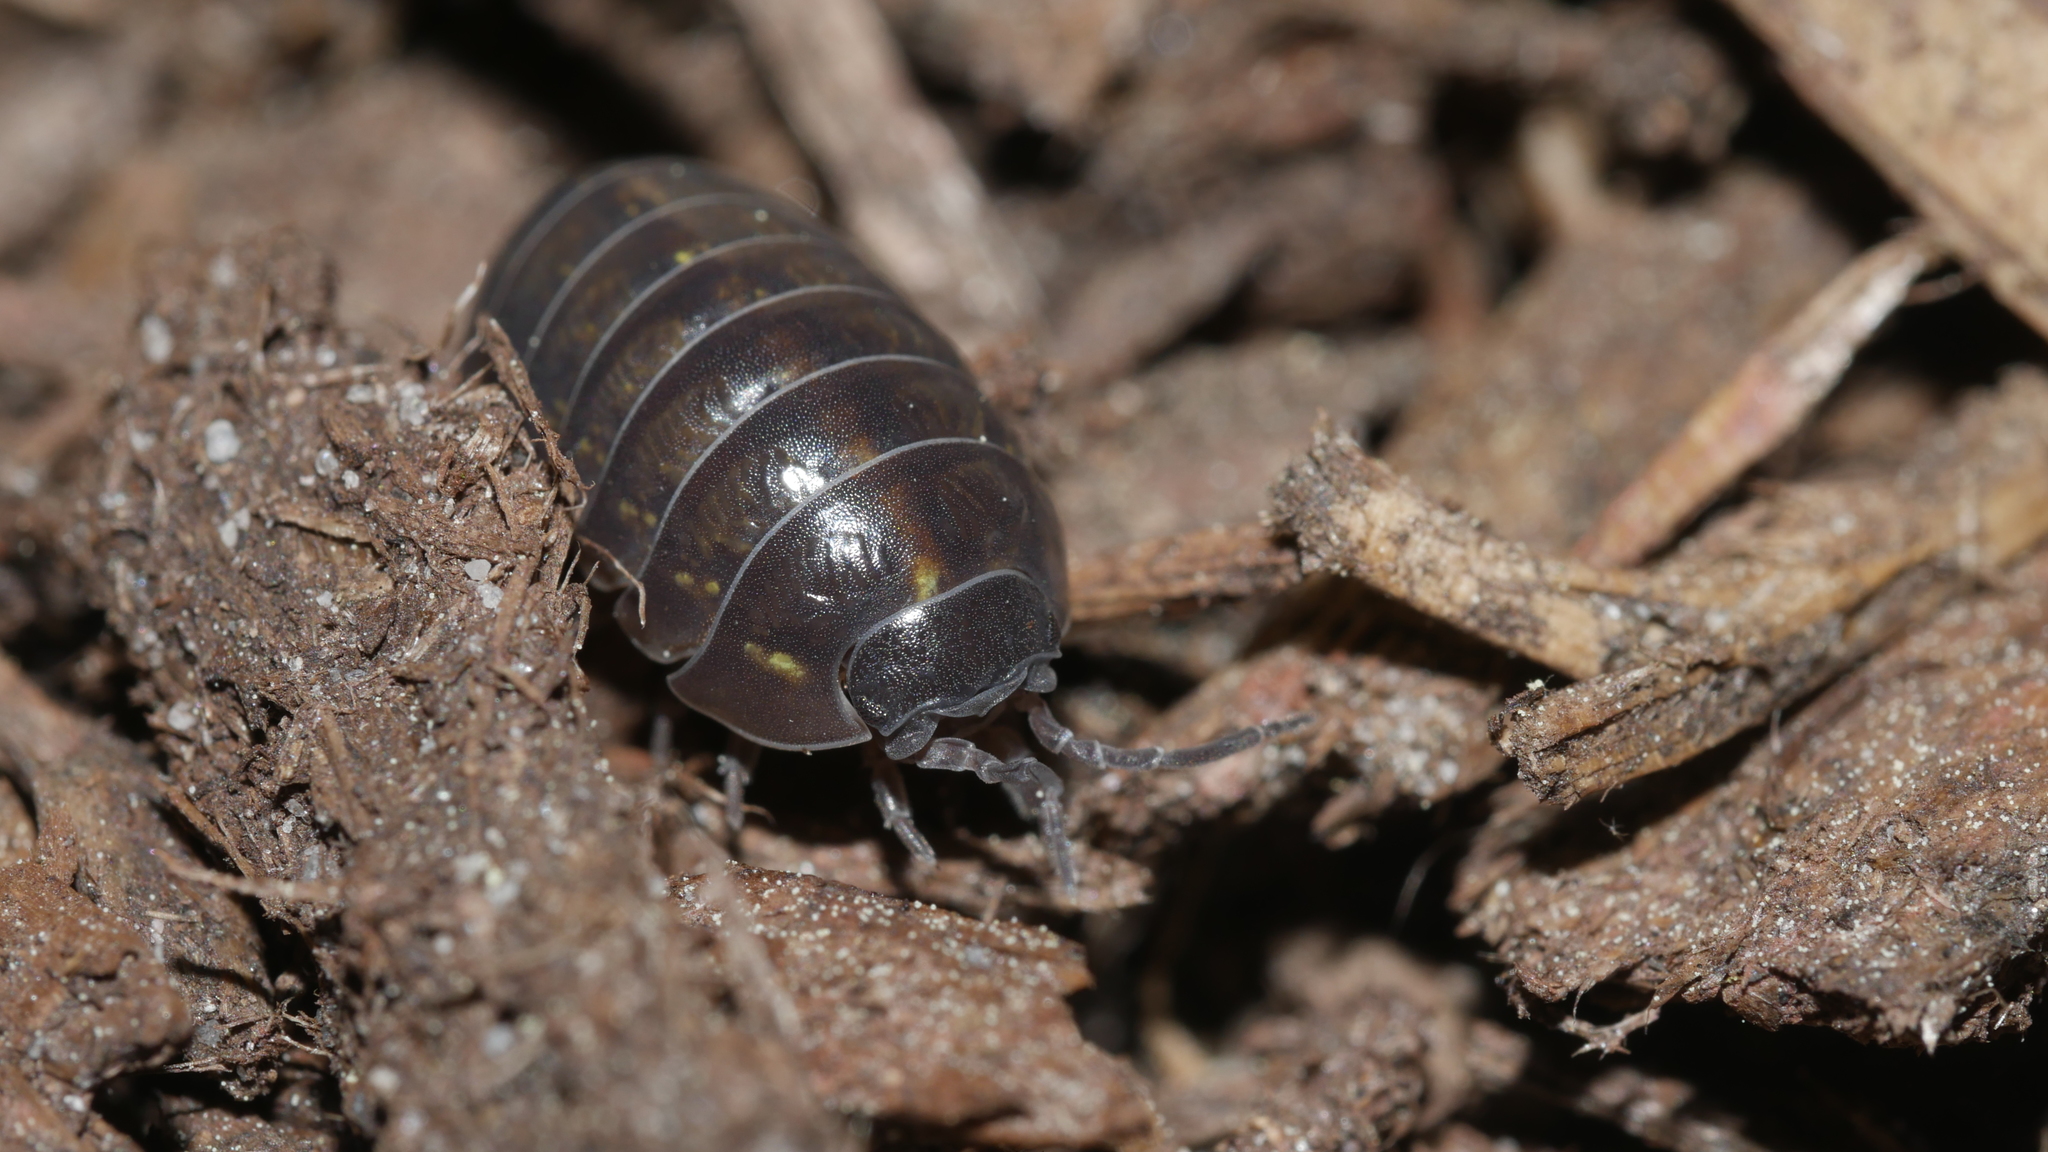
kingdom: Animalia
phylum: Arthropoda
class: Malacostraca
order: Isopoda
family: Armadillidiidae
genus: Armadillidium
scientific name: Armadillidium vulgare
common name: Common pill woodlouse
